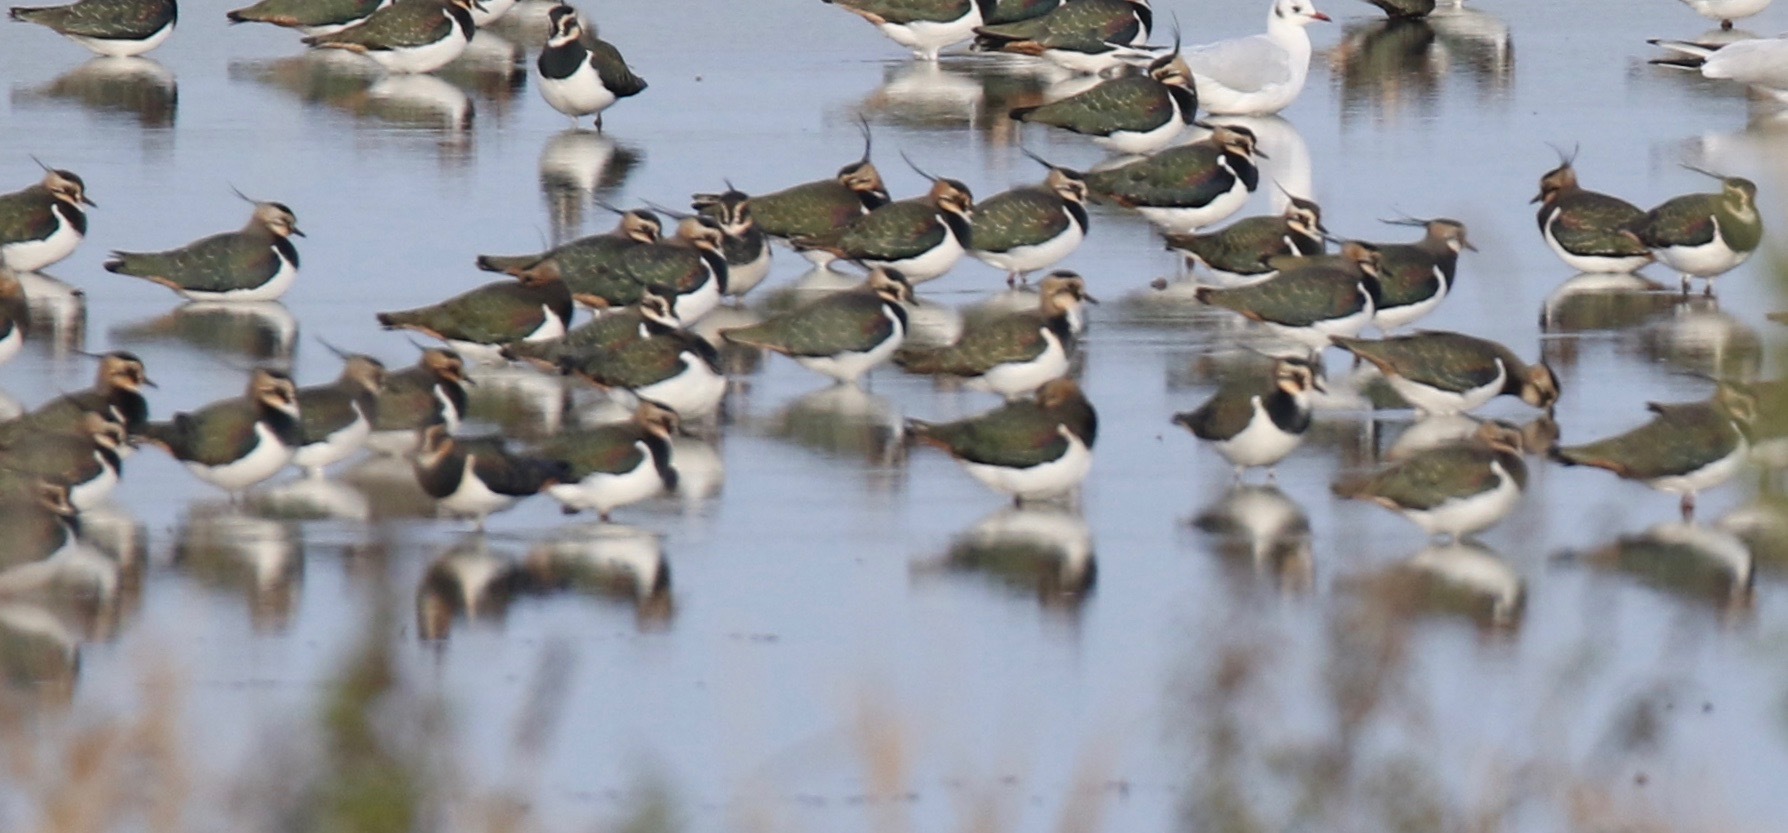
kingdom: Animalia
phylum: Chordata
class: Aves
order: Charadriiformes
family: Charadriidae
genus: Vanellus
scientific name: Vanellus vanellus
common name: Northern lapwing
